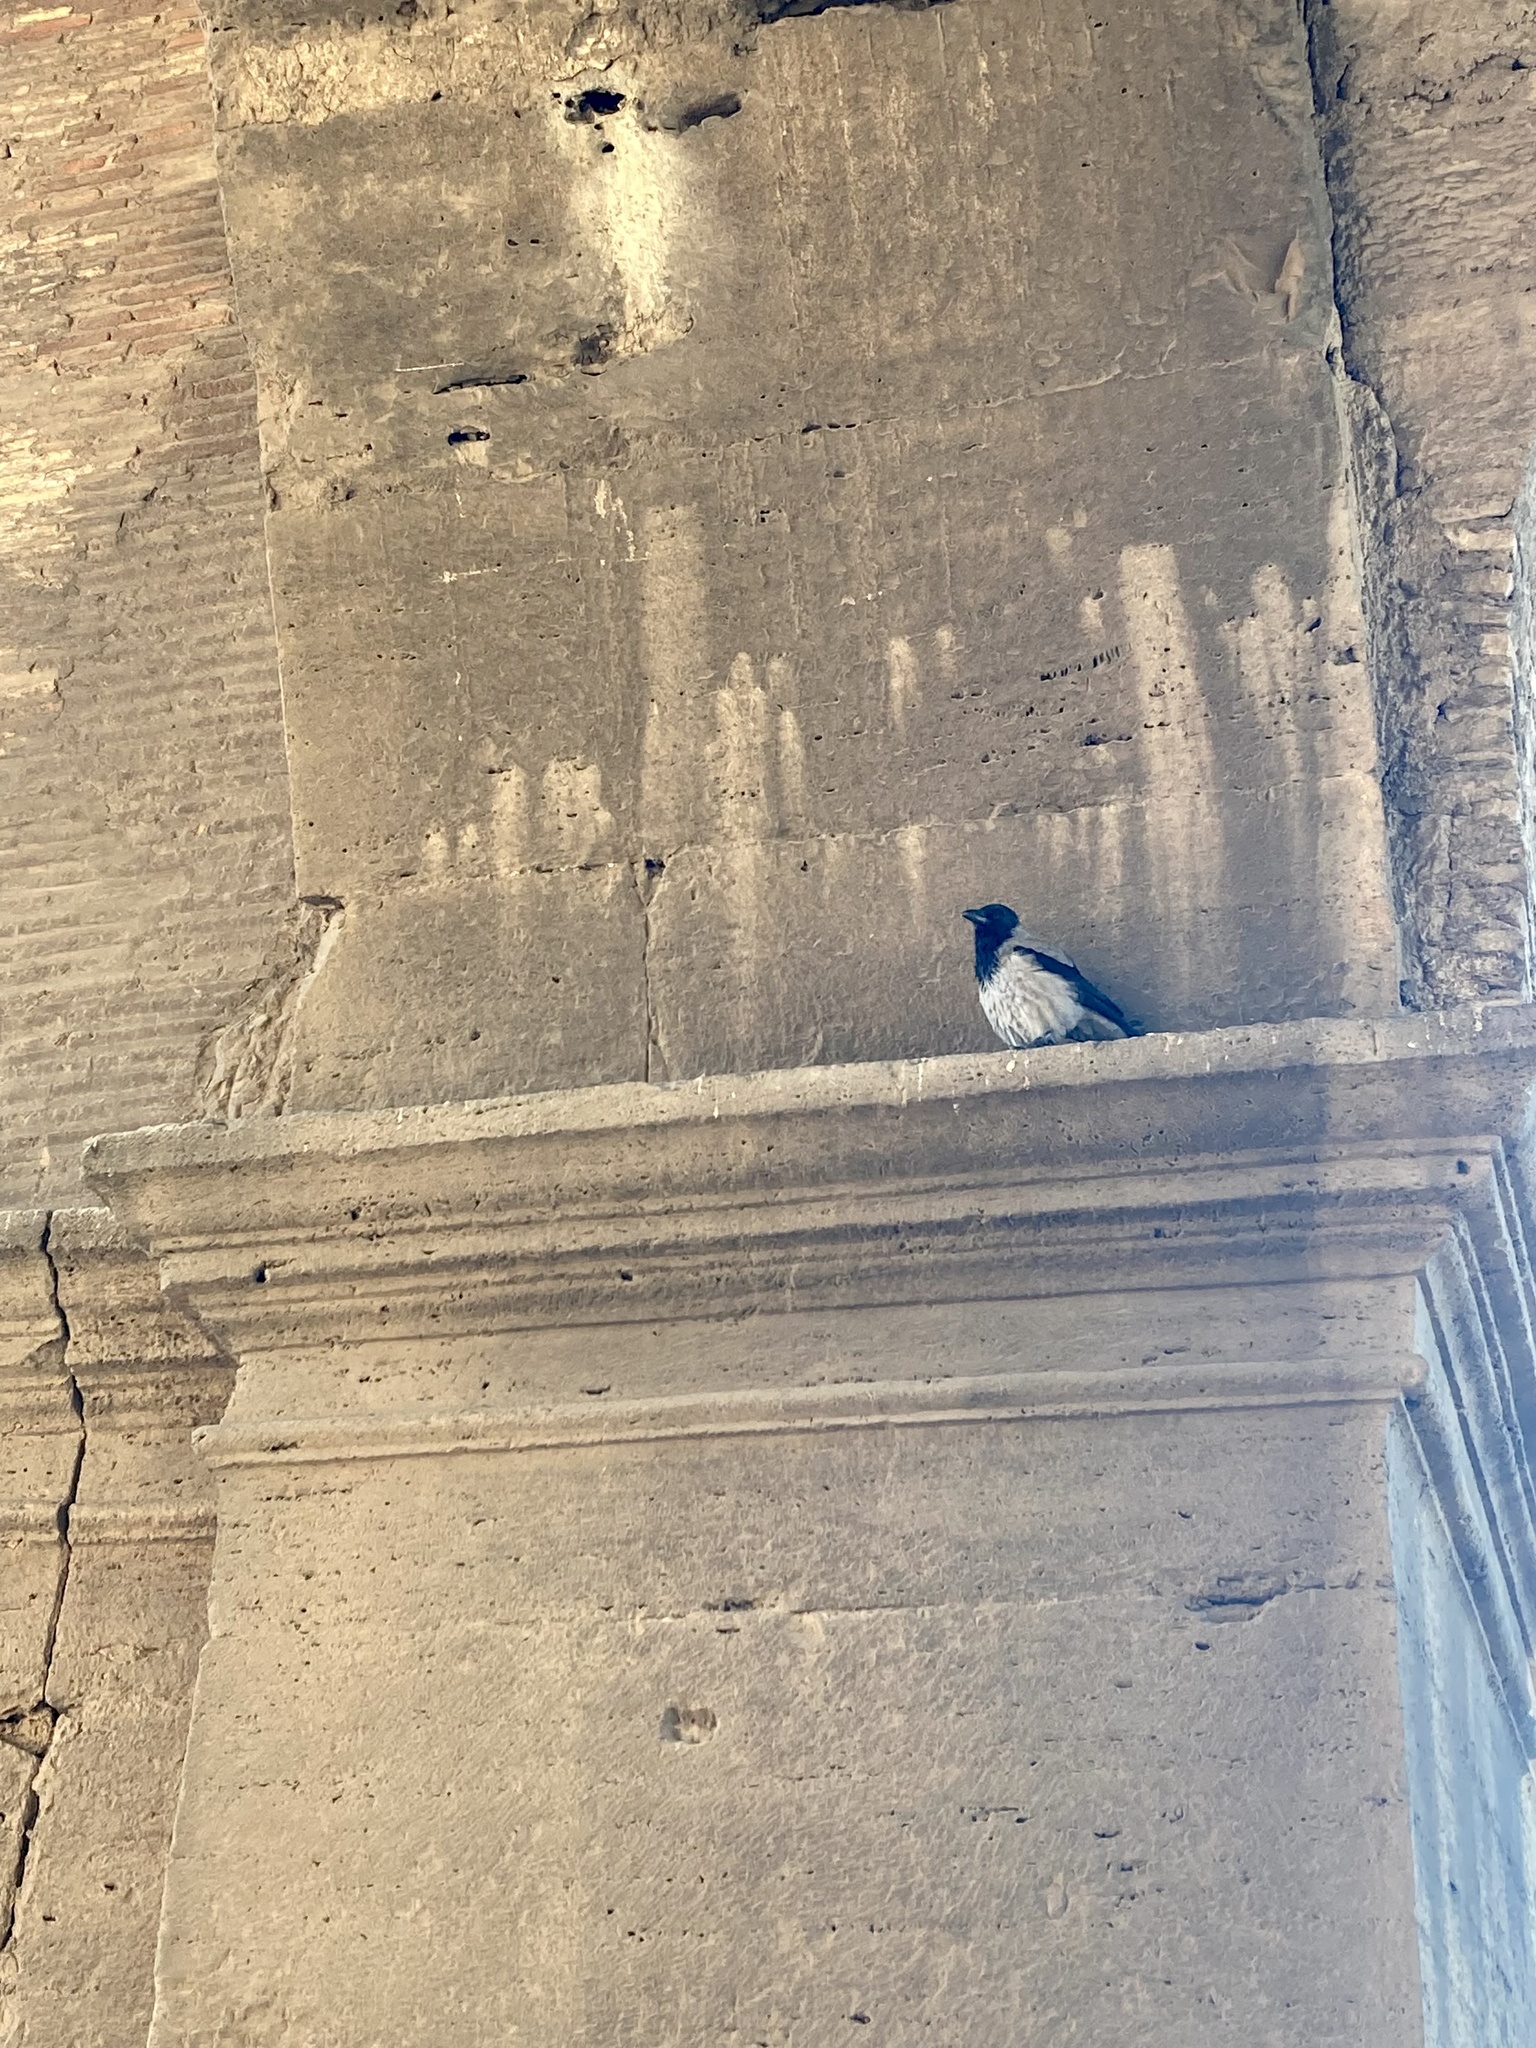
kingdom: Animalia
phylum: Chordata
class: Aves
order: Passeriformes
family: Corvidae
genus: Corvus
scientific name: Corvus cornix
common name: Hooded crow
